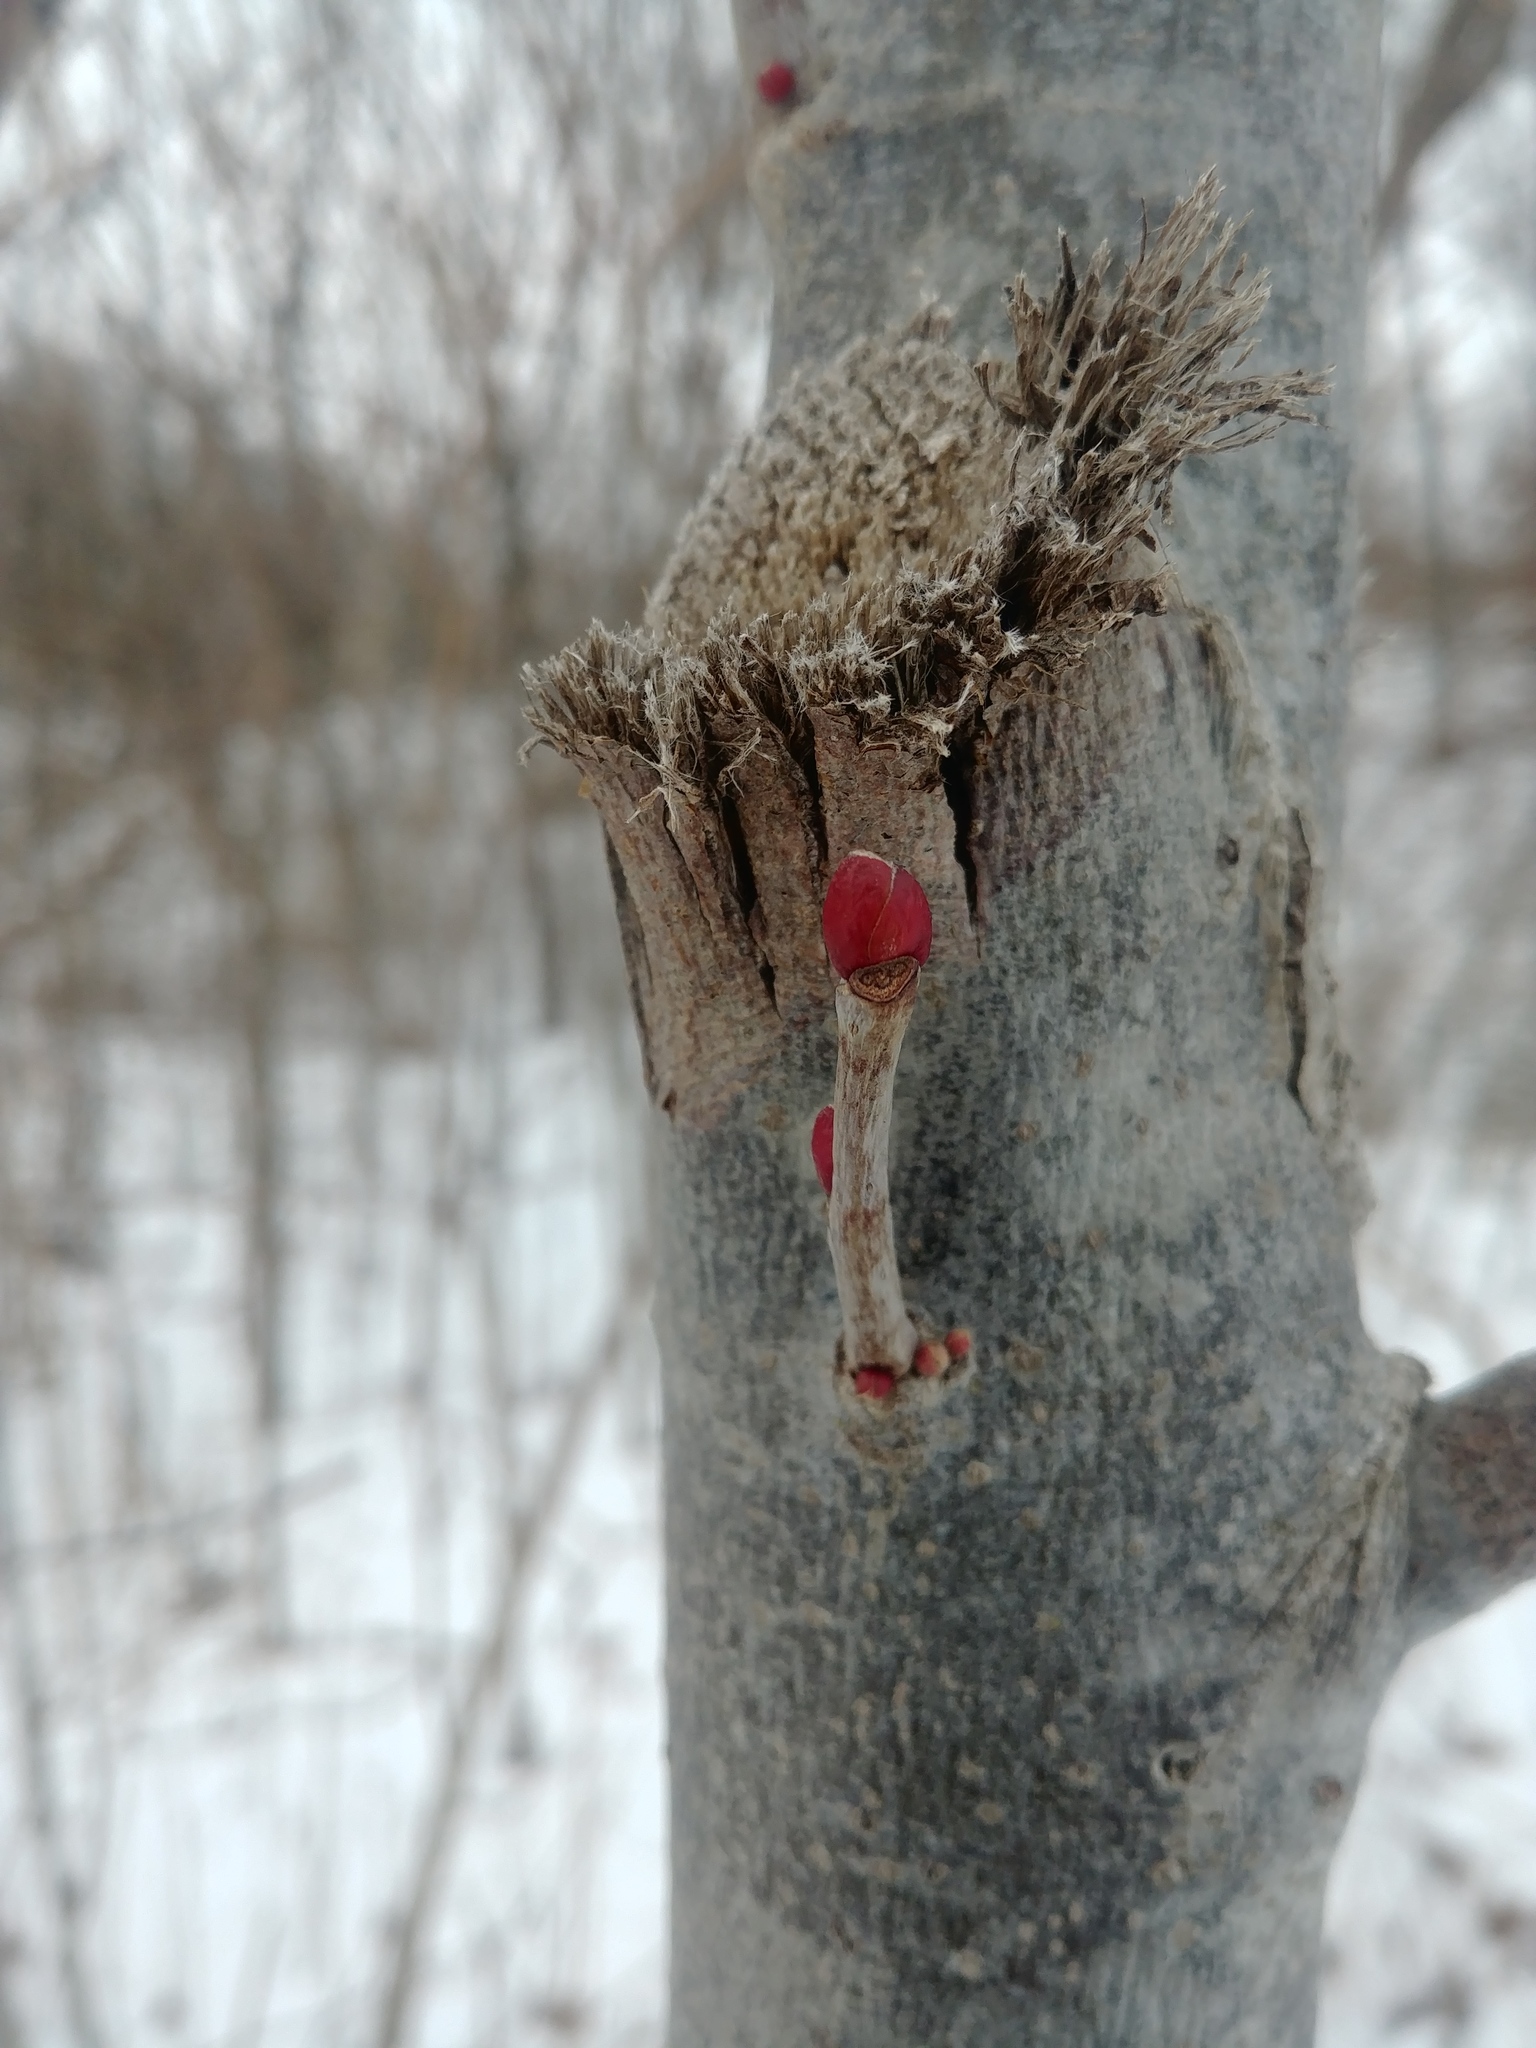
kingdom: Plantae
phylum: Tracheophyta
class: Magnoliopsida
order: Malvales
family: Malvaceae
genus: Tilia
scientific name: Tilia americana
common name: Basswood
